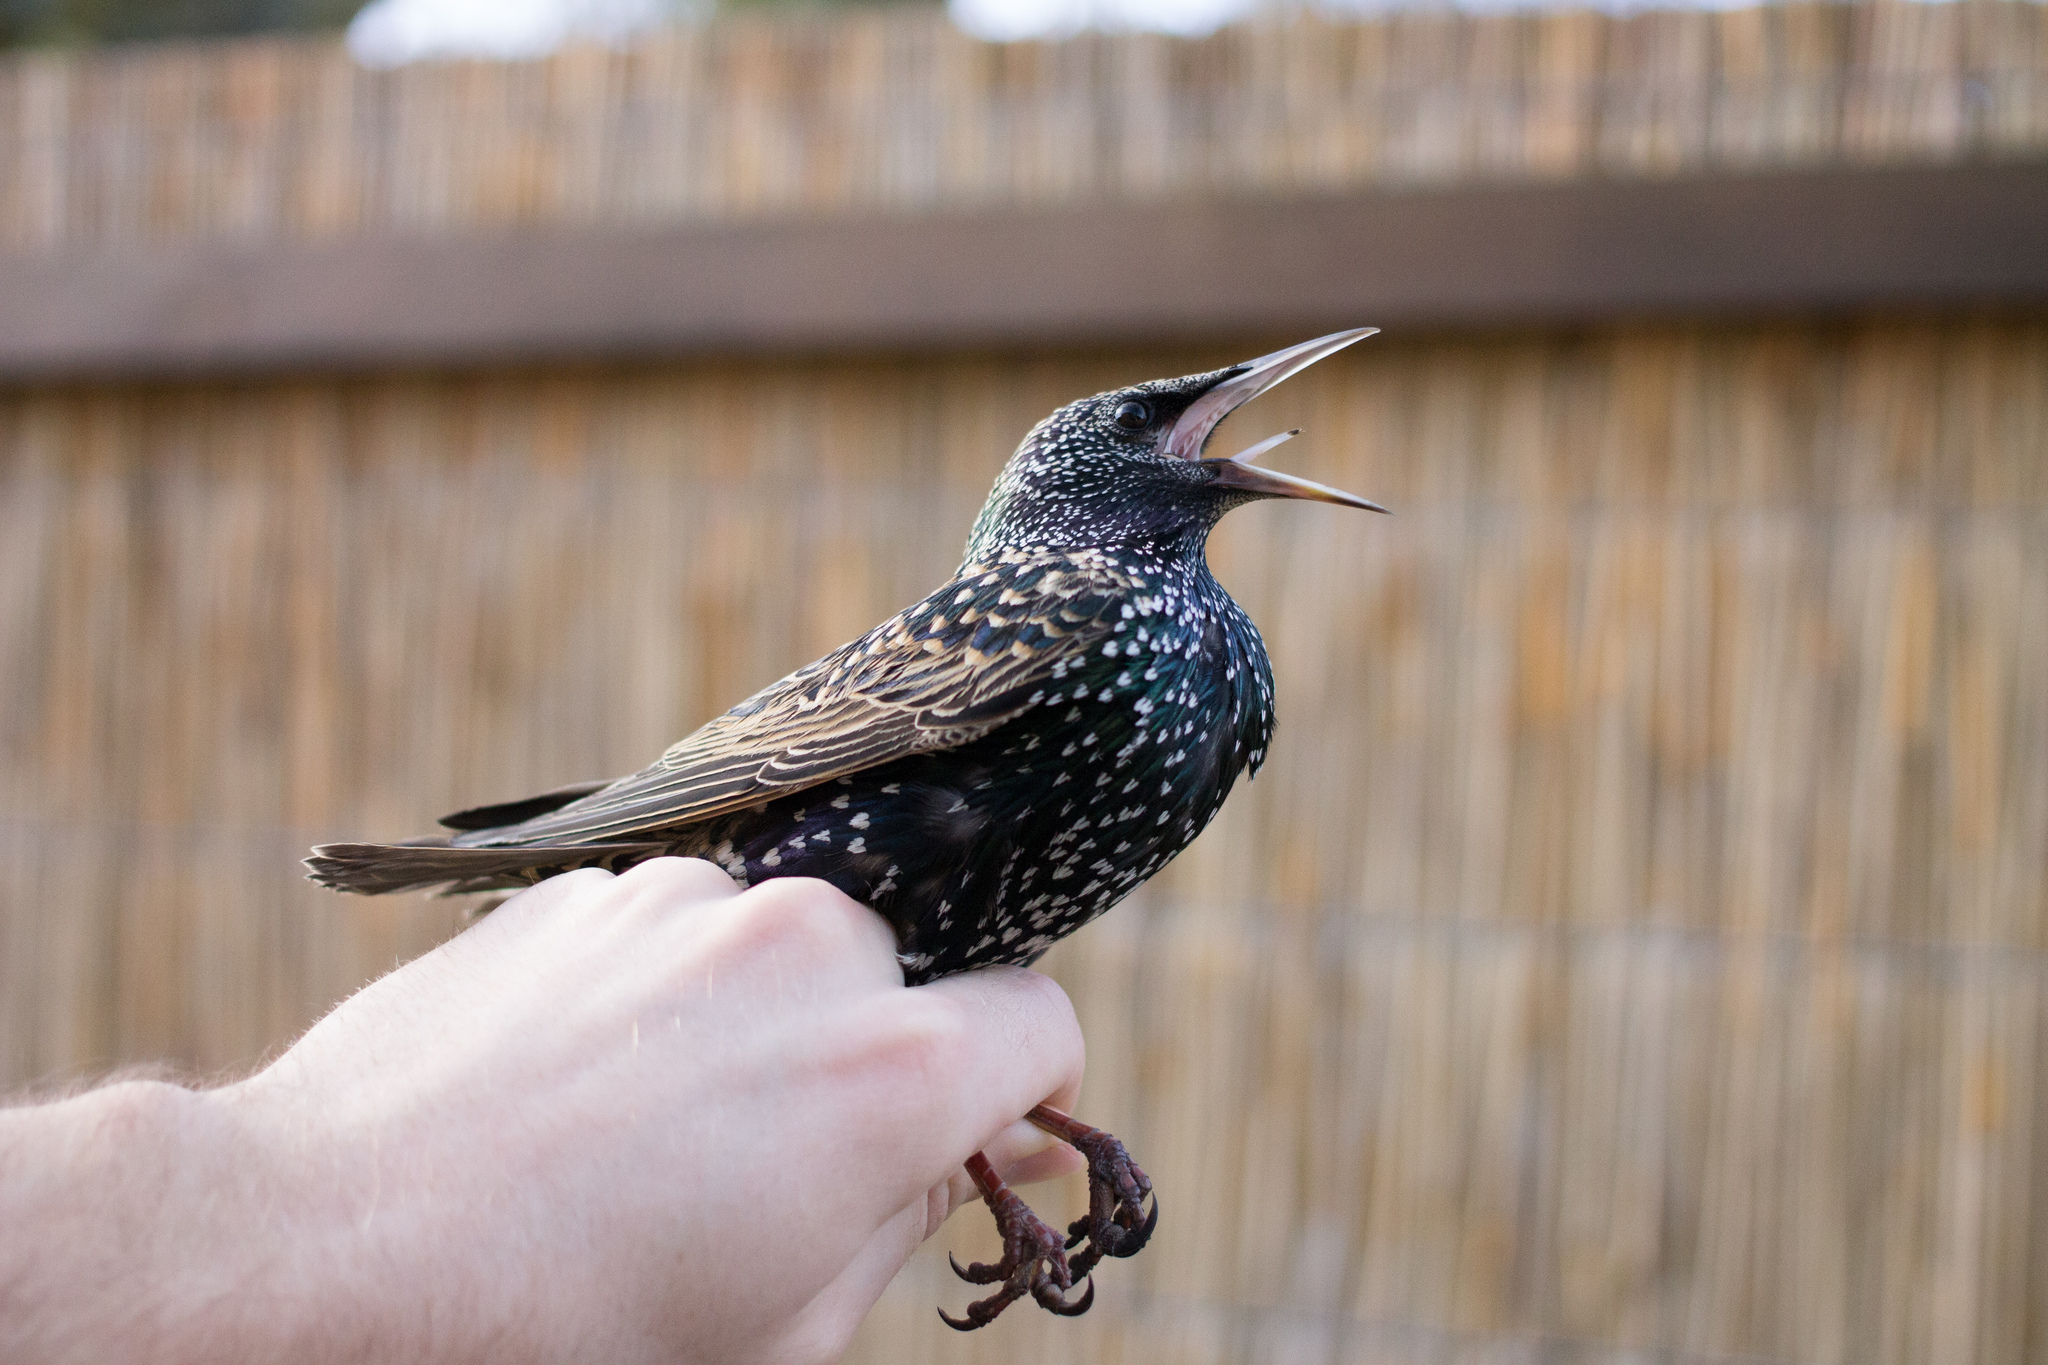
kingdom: Animalia
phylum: Chordata
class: Aves
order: Passeriformes
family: Sturnidae
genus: Sturnus
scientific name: Sturnus vulgaris
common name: Common starling
